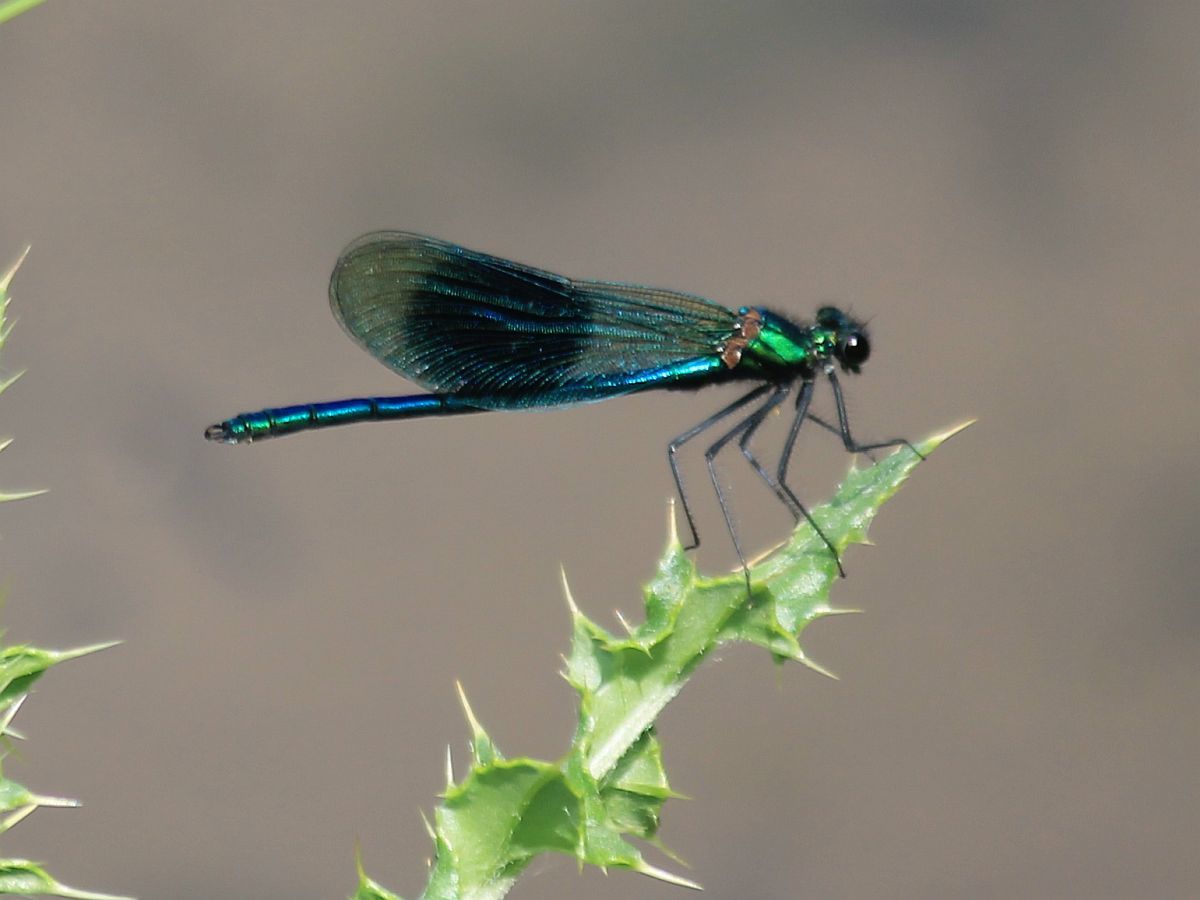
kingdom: Animalia
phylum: Arthropoda
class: Insecta
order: Odonata
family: Calopterygidae
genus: Calopteryx
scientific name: Calopteryx splendens
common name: Banded demoiselle
